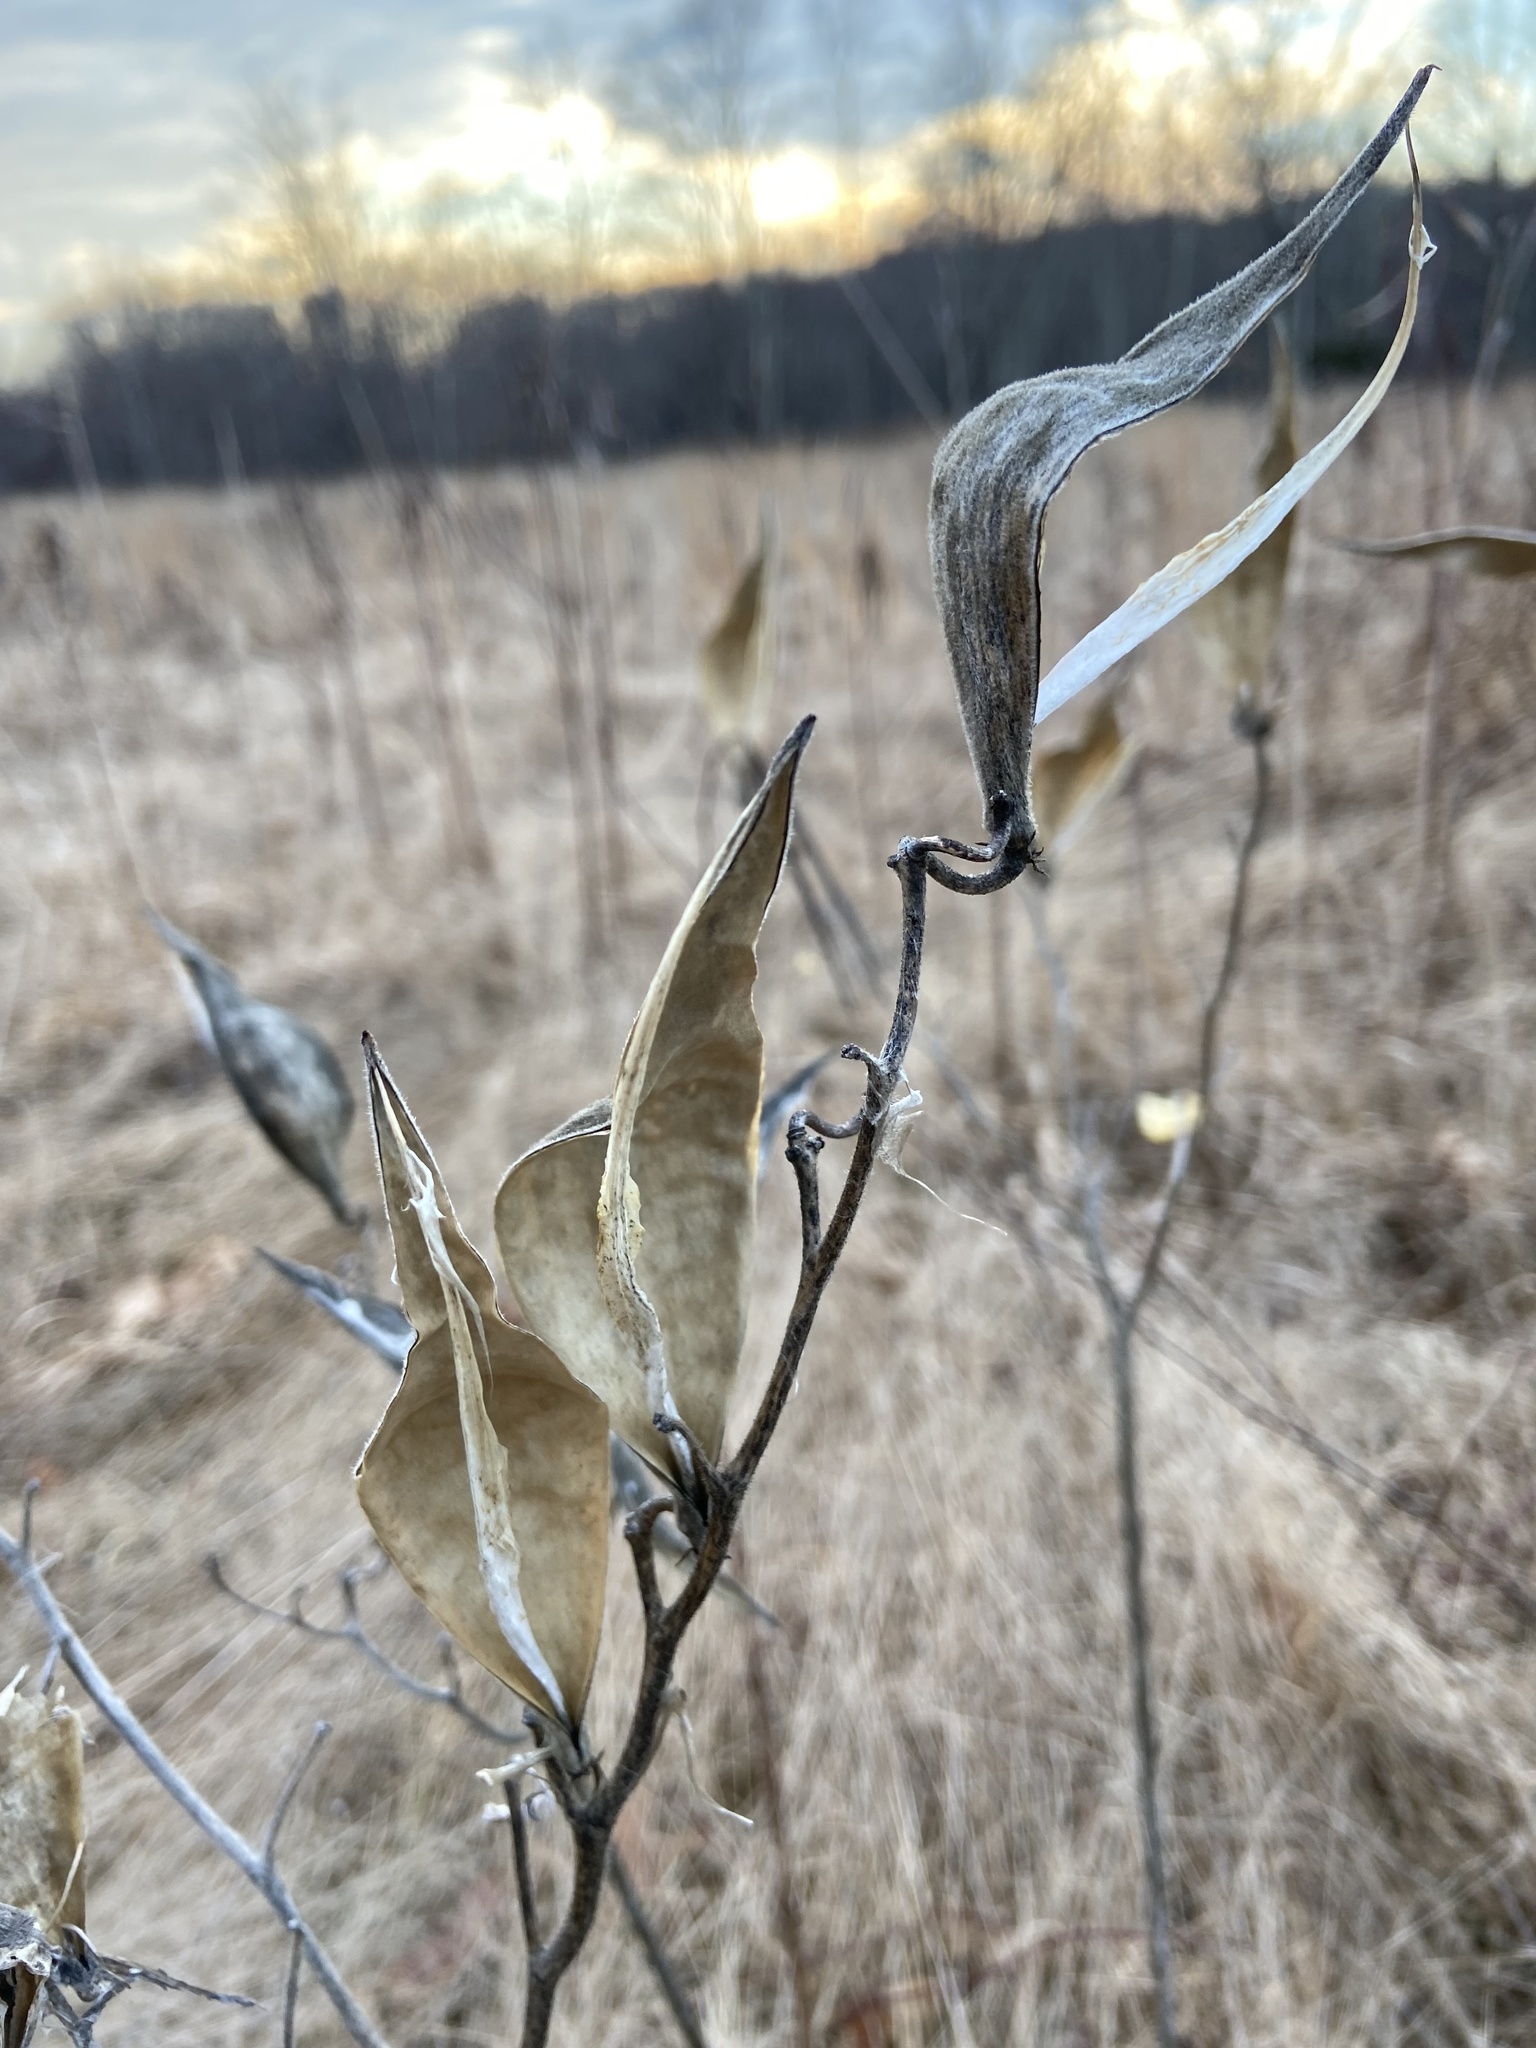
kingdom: Plantae
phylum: Tracheophyta
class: Magnoliopsida
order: Gentianales
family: Apocynaceae
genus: Asclepias
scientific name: Asclepias tuberosa
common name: Butterfly milkweed
